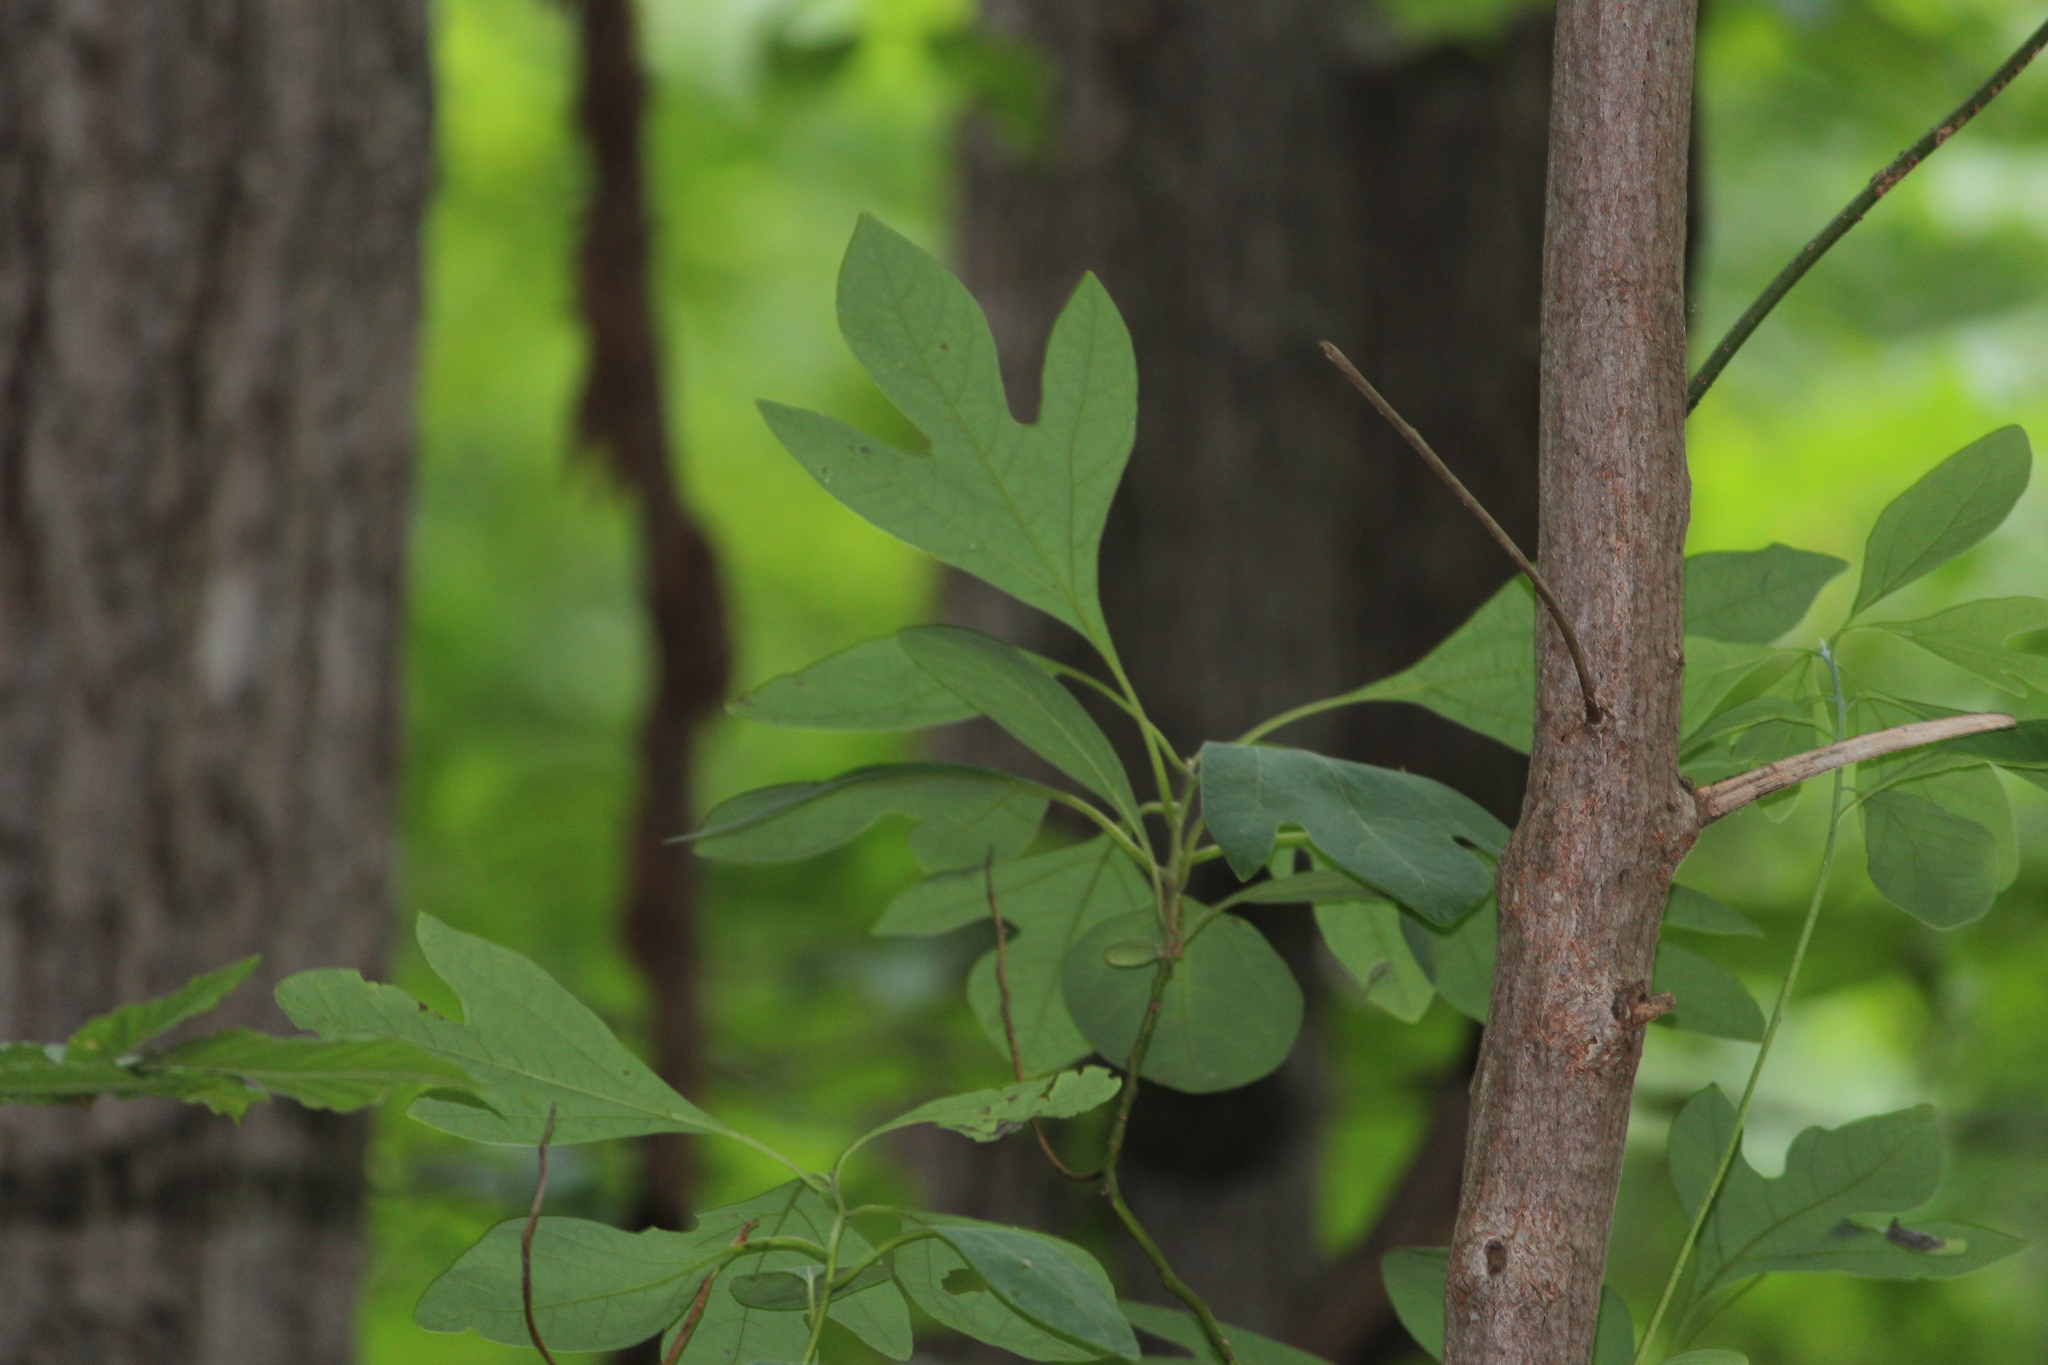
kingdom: Plantae
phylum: Tracheophyta
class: Magnoliopsida
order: Laurales
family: Lauraceae
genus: Sassafras
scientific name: Sassafras albidum
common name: Sassafras
